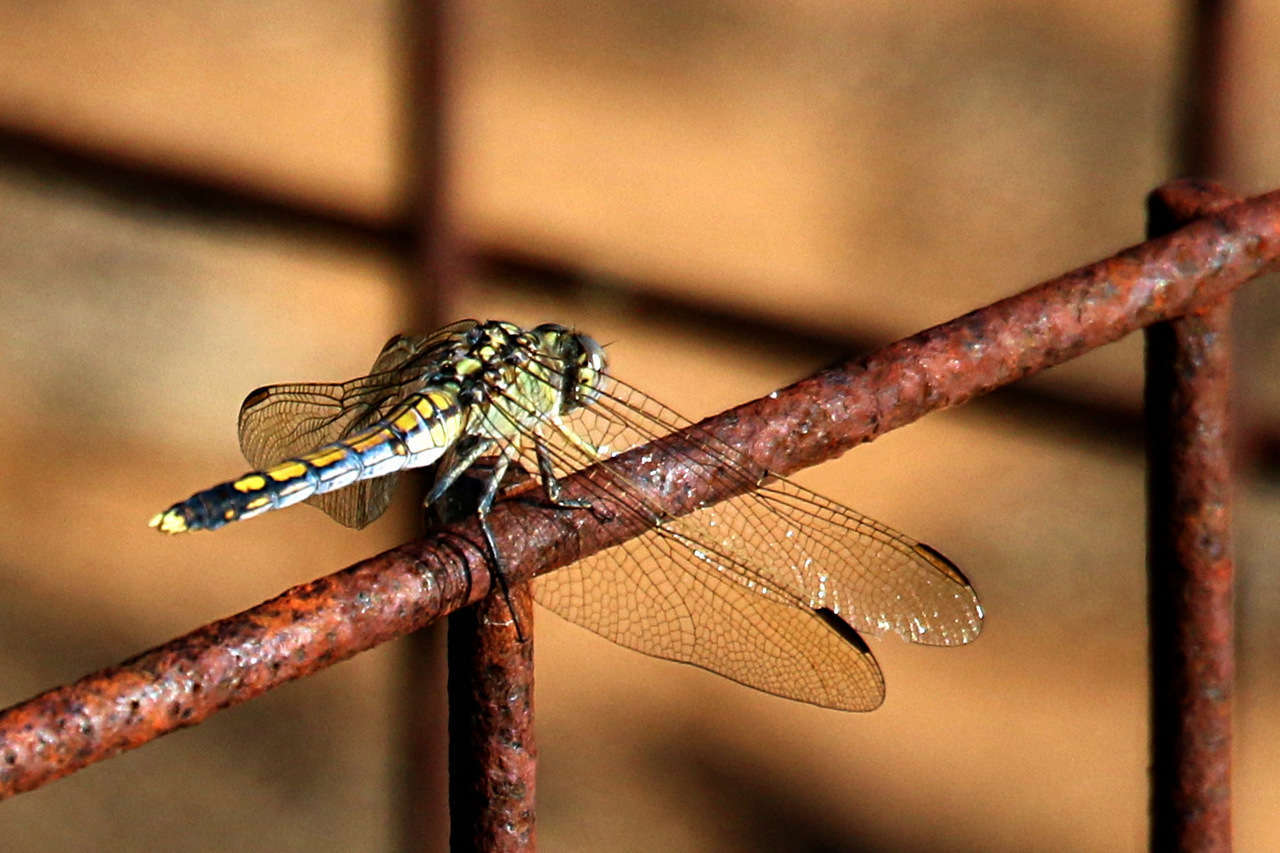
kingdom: Animalia
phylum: Arthropoda
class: Insecta
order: Odonata
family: Libellulidae
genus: Orthetrum
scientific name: Orthetrum caledonicum
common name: Blue skimmer
